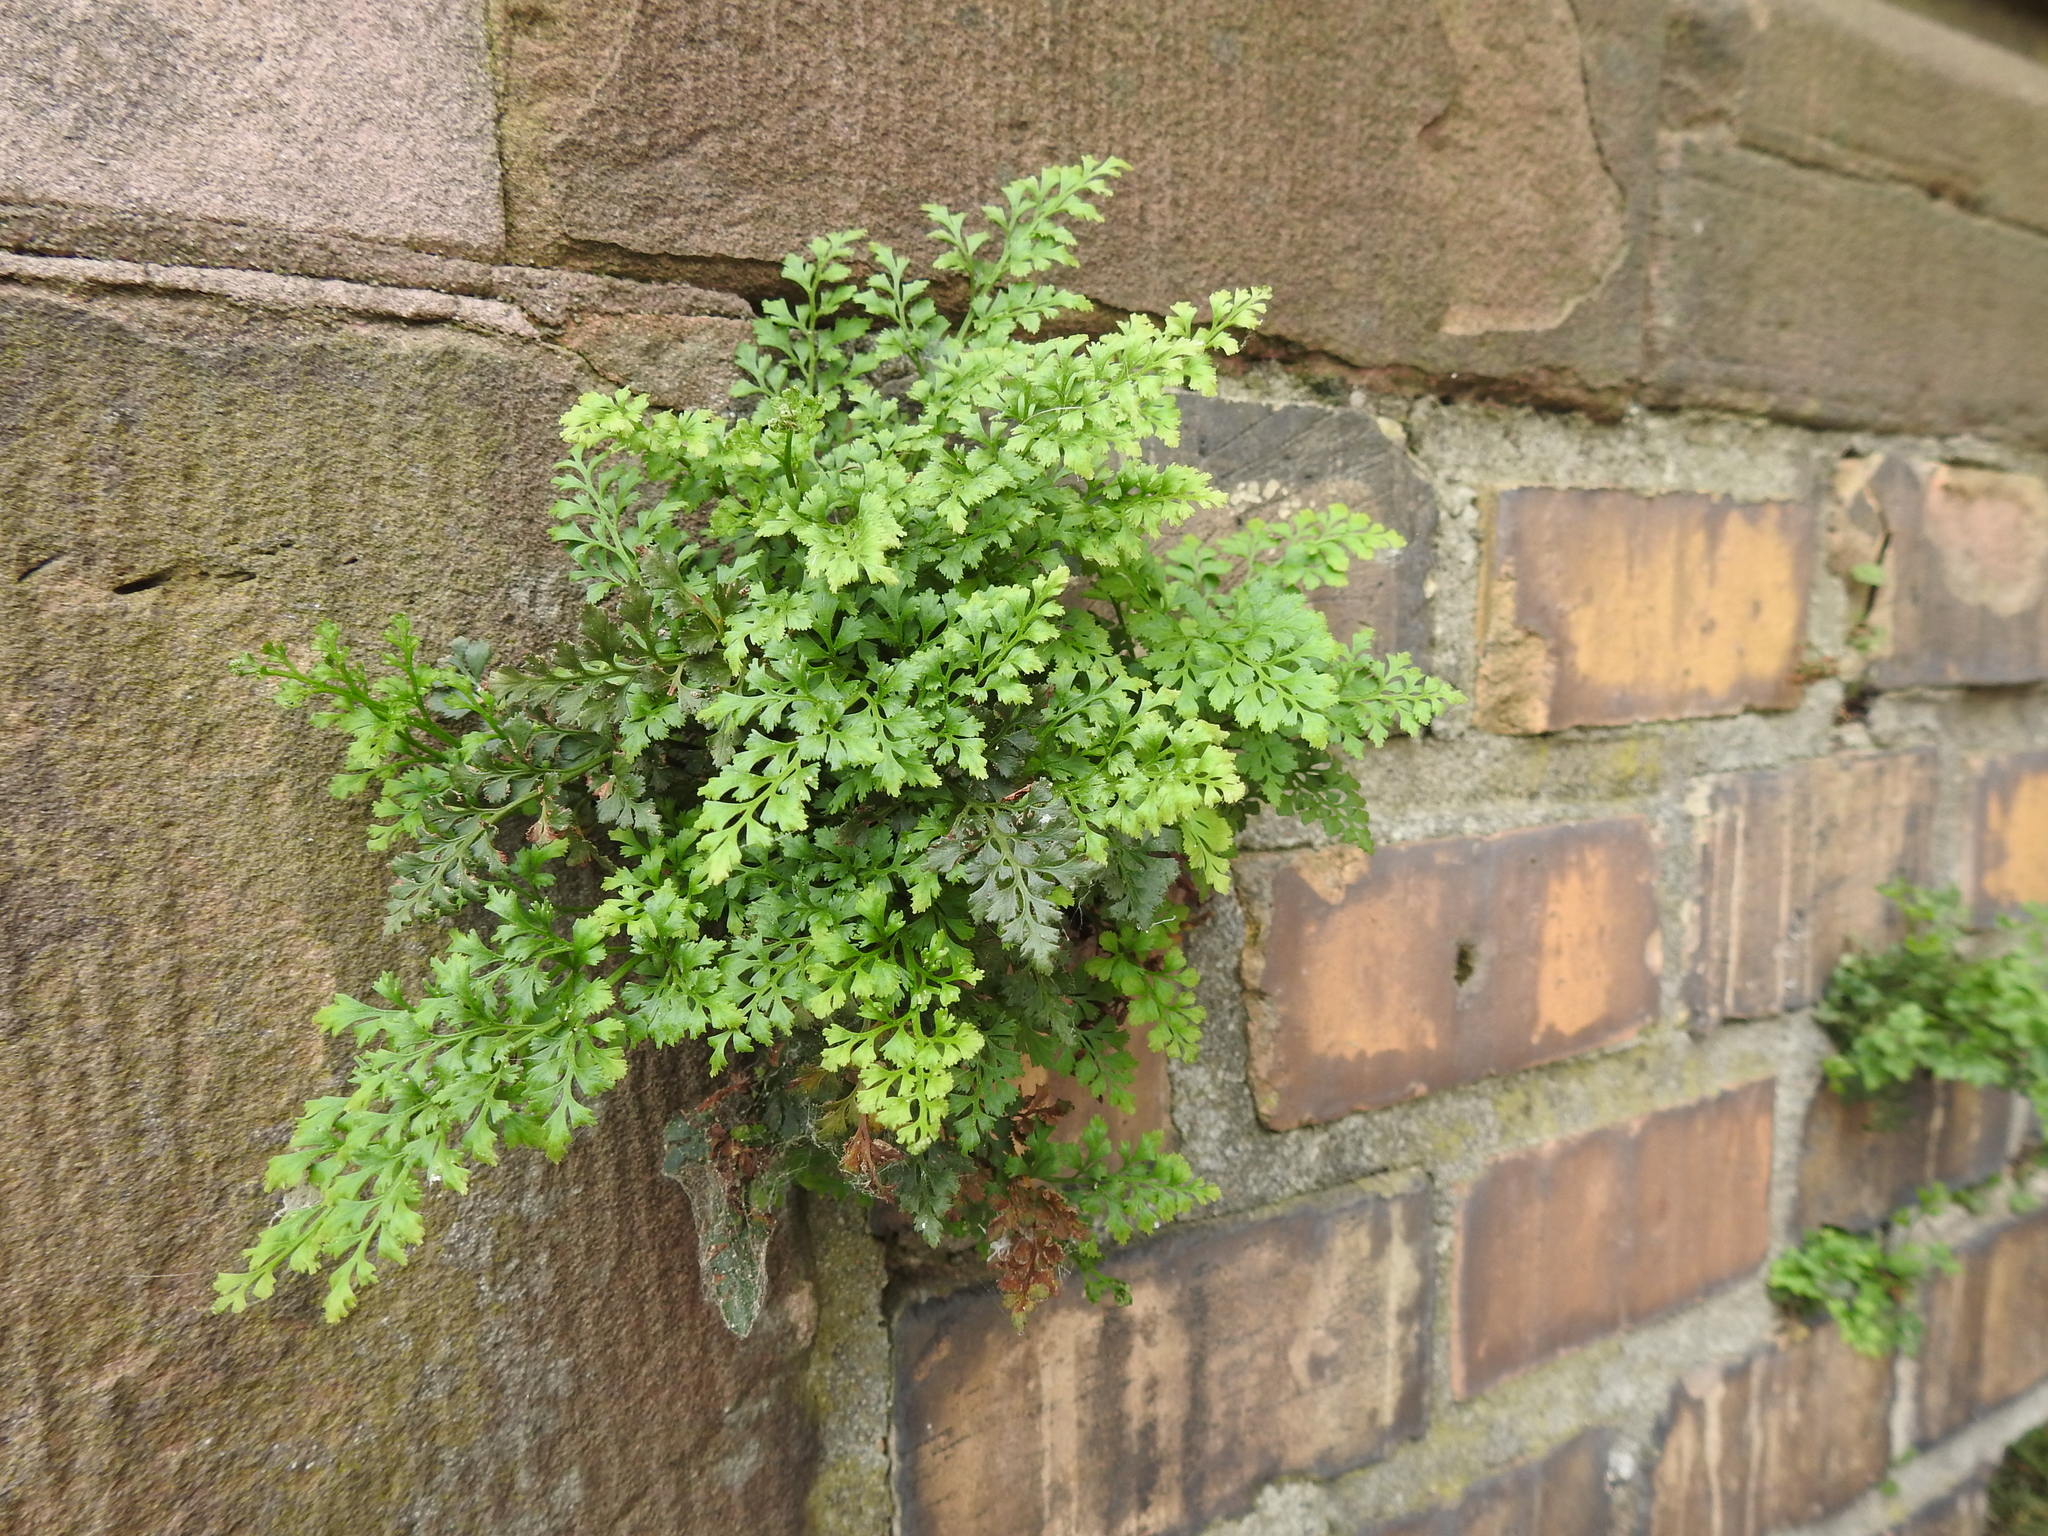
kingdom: Plantae
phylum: Tracheophyta
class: Polypodiopsida
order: Polypodiales
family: Aspleniaceae
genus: Asplenium
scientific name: Asplenium ruta-muraria
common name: Wall-rue
